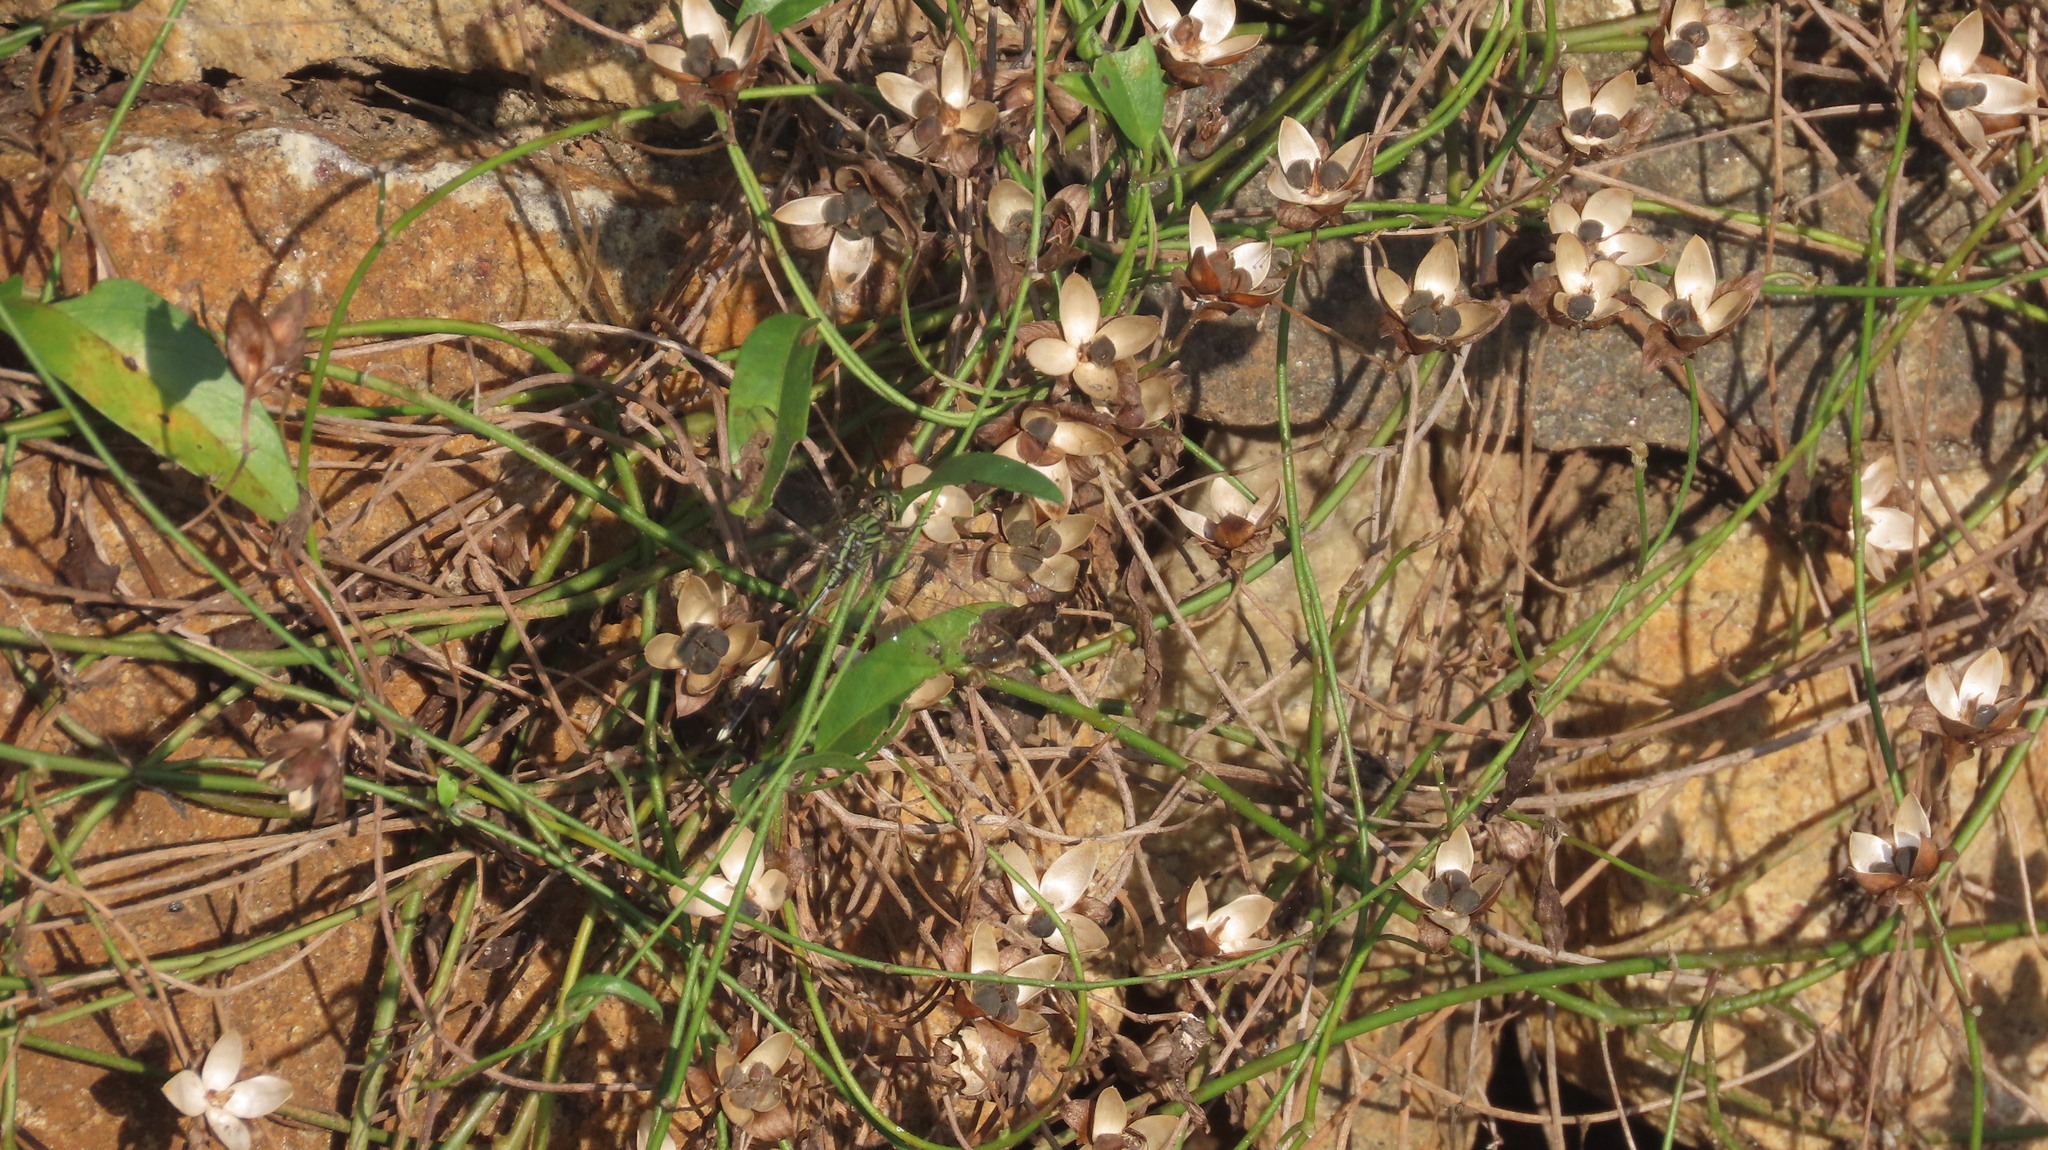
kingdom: Animalia
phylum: Arthropoda
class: Insecta
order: Odonata
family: Libellulidae
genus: Orthetrum
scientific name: Orthetrum sabina
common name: Slender skimmer
